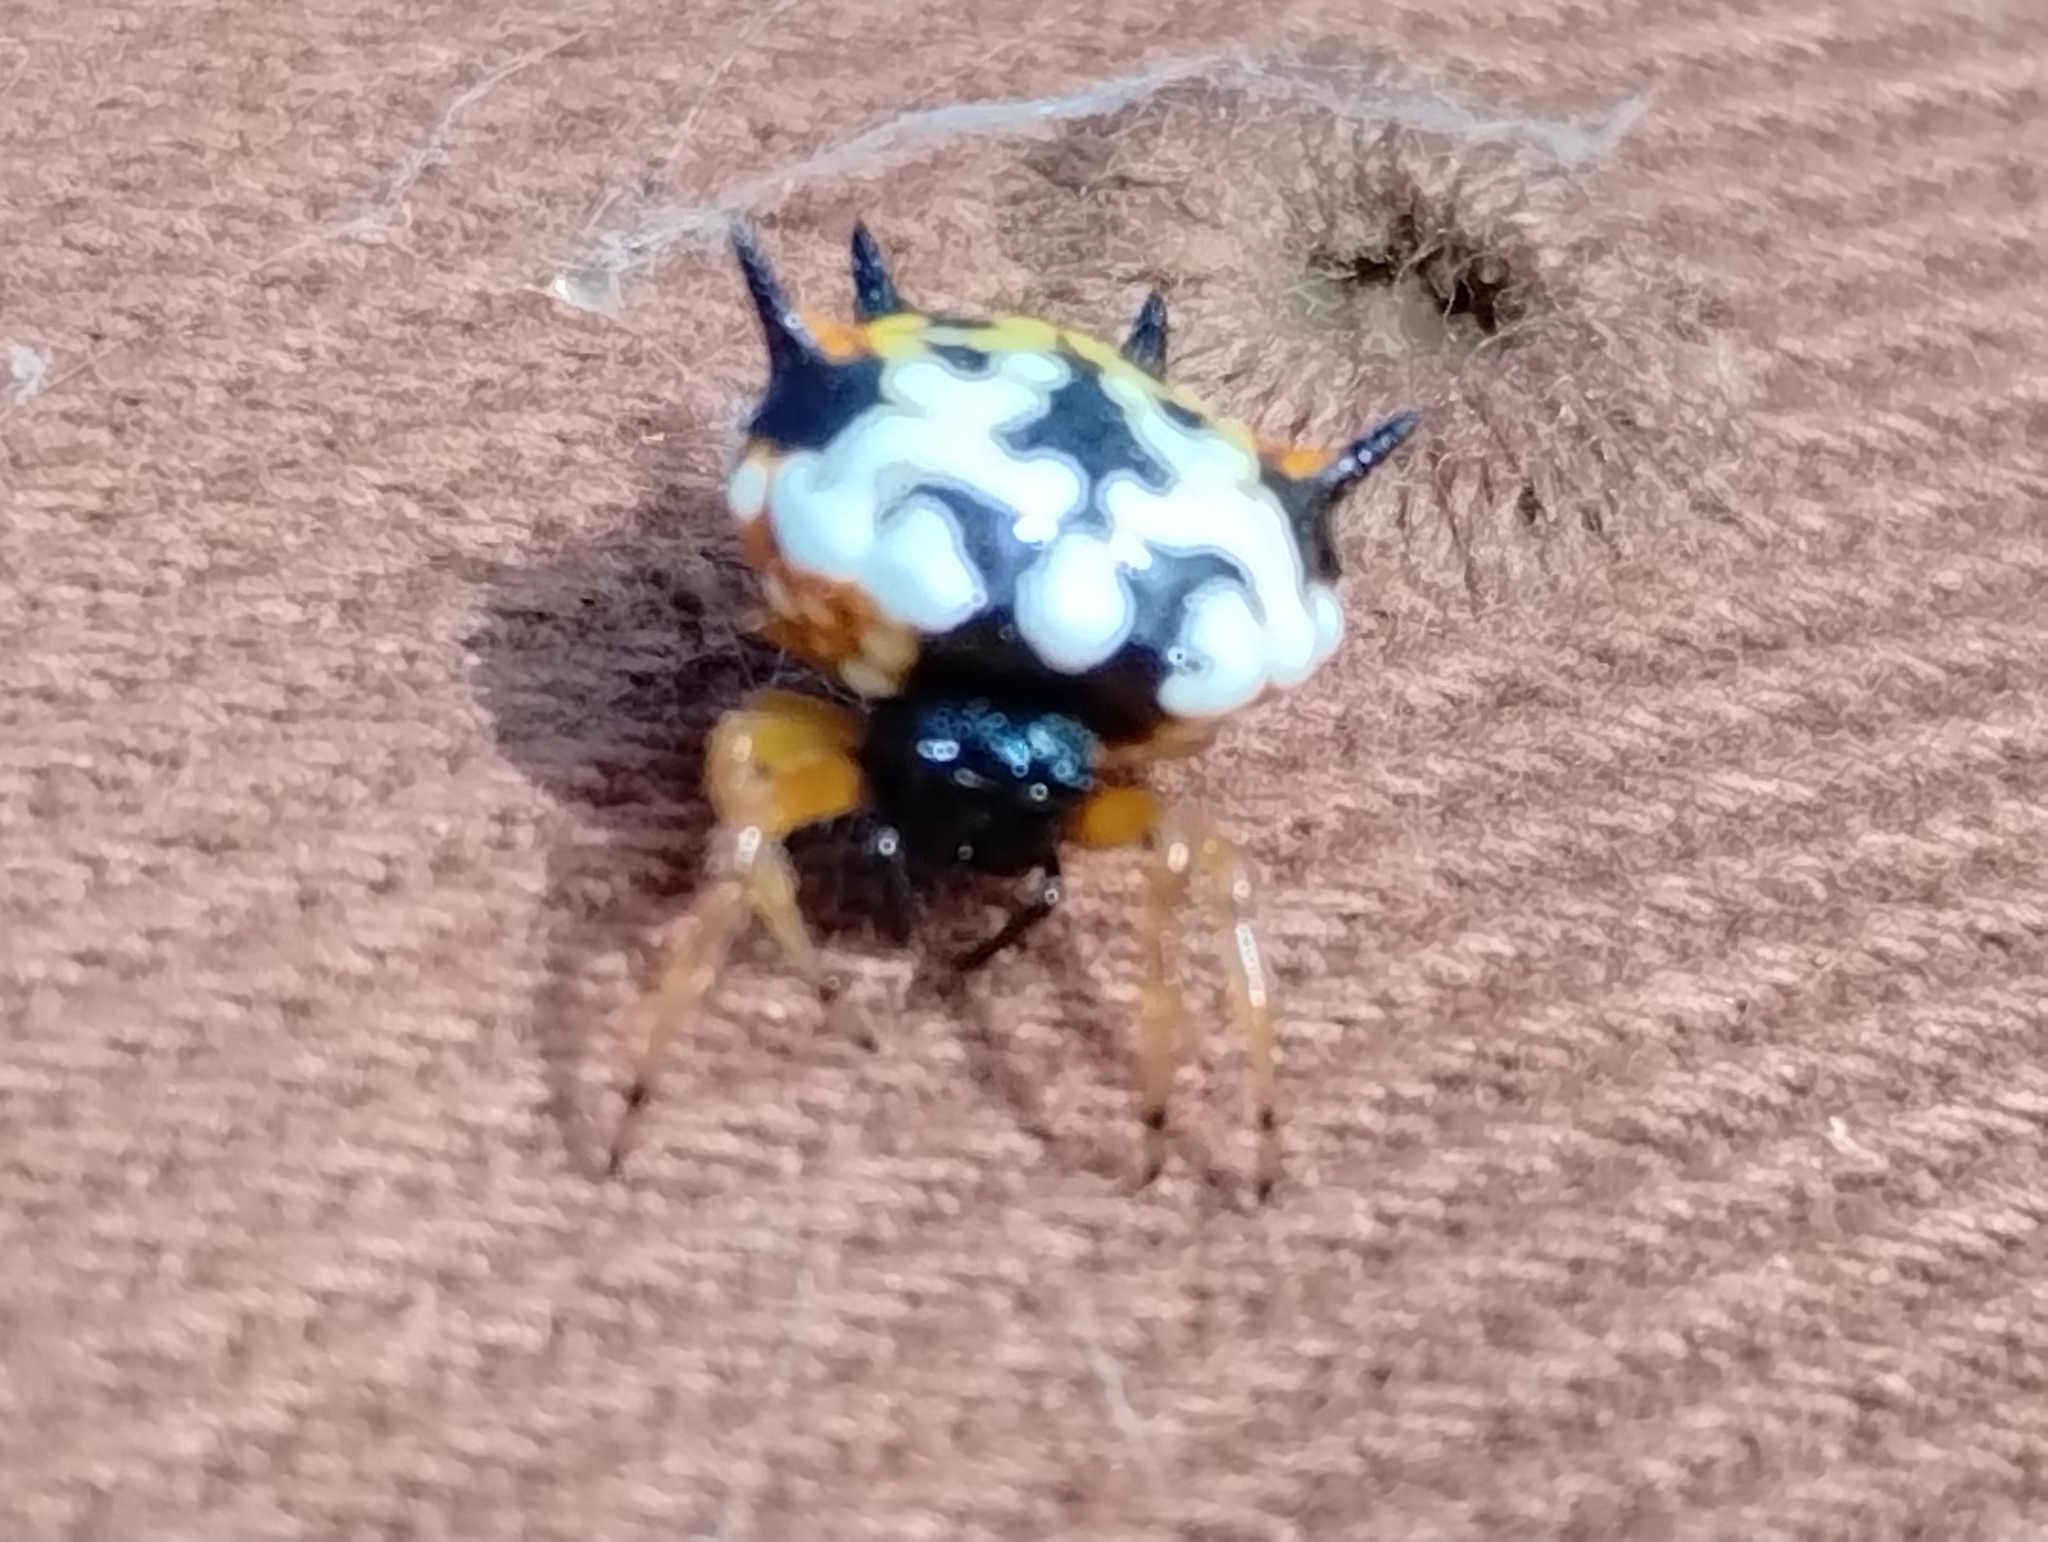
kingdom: Animalia
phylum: Arthropoda
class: Arachnida
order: Araneae
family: Araneidae
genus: Austracantha
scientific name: Austracantha minax
